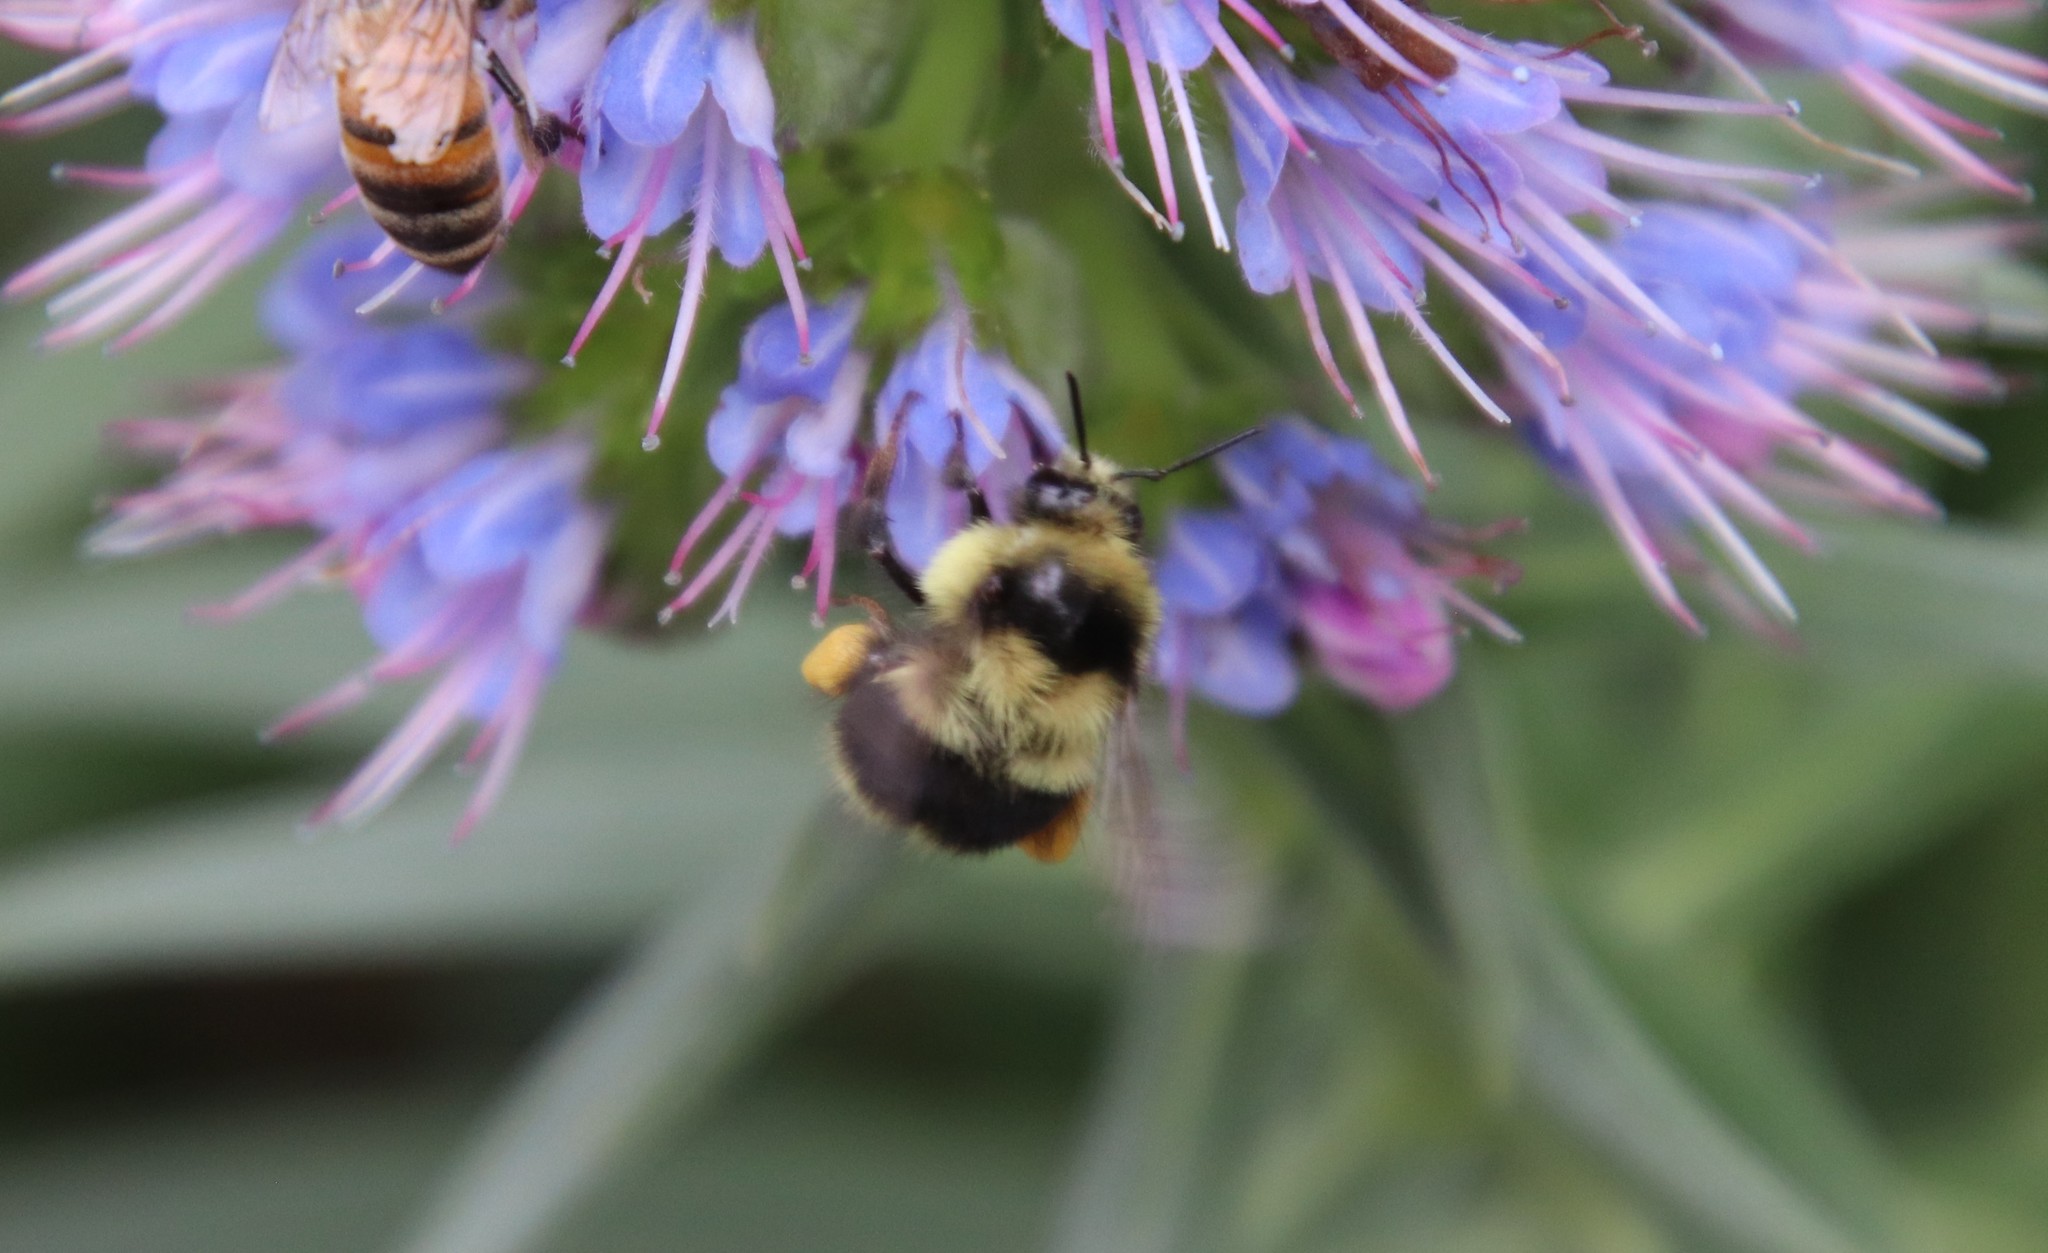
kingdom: Animalia
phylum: Arthropoda
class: Insecta
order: Hymenoptera
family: Apidae
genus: Bombus
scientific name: Bombus melanopygus
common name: Black tail bumble bee
